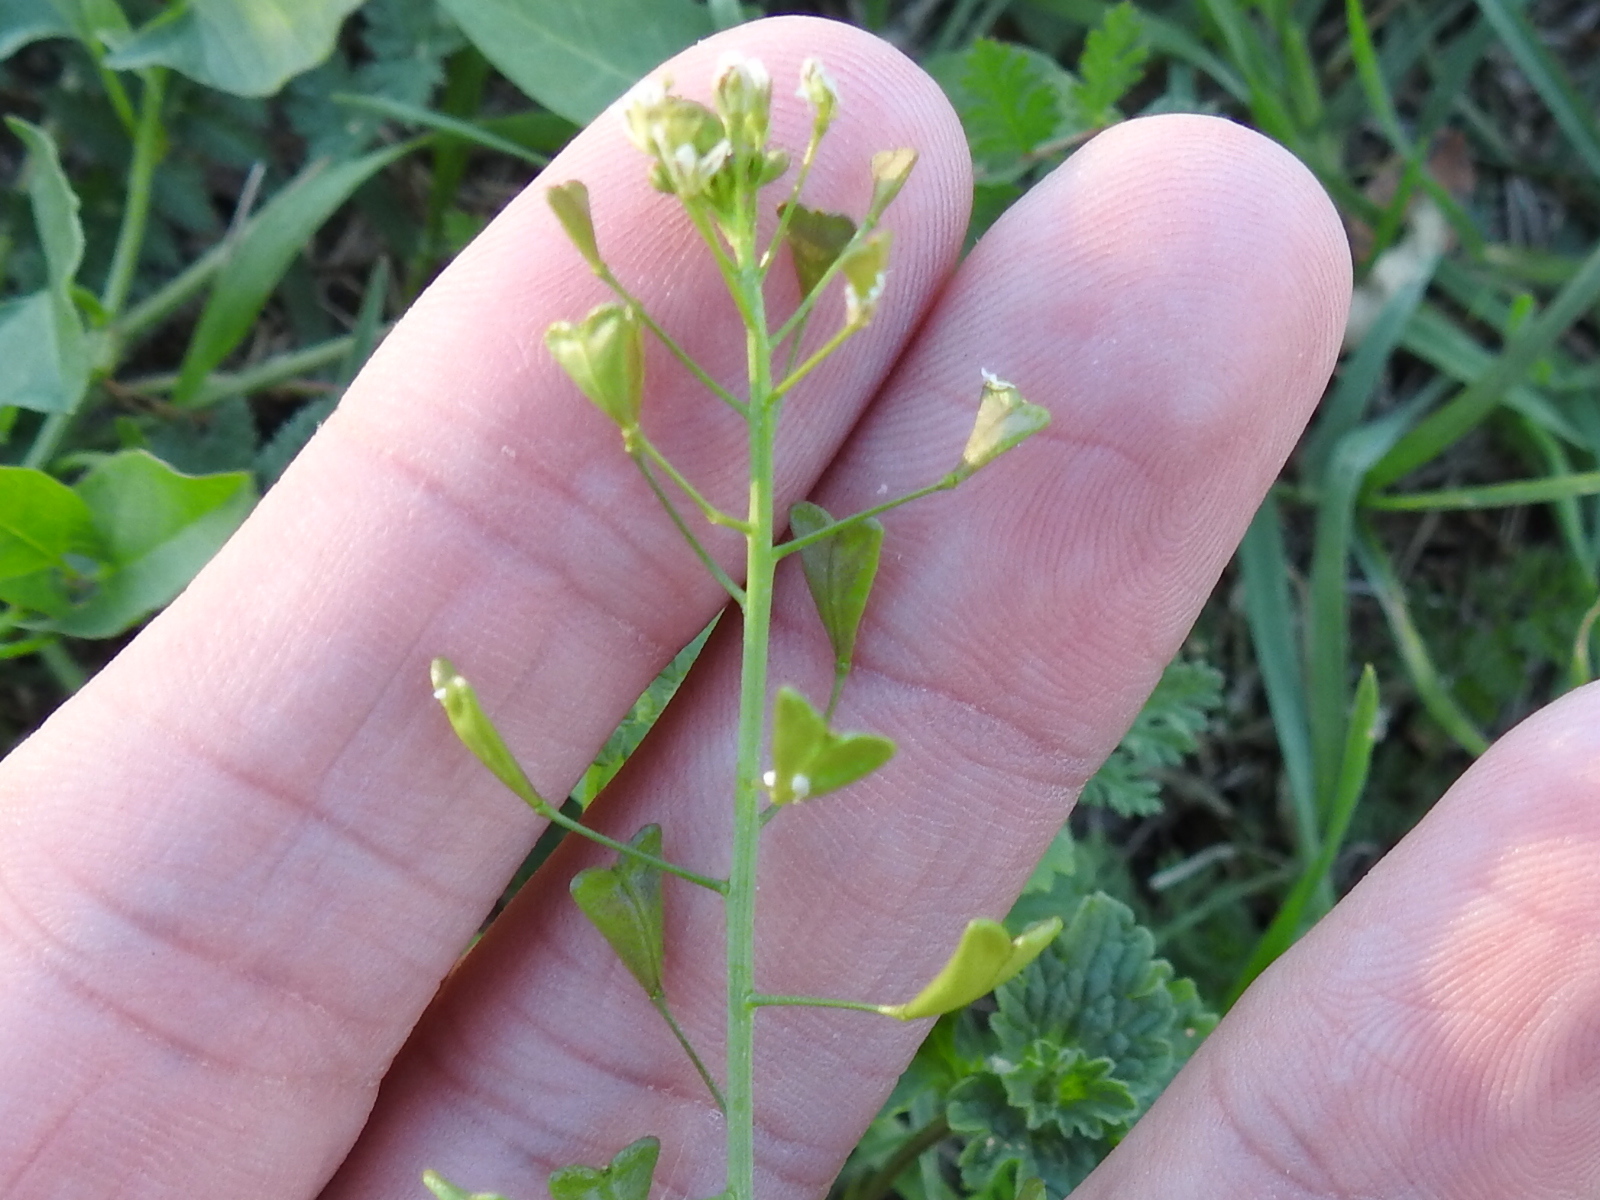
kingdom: Plantae
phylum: Tracheophyta
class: Magnoliopsida
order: Brassicales
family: Brassicaceae
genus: Capsella
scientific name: Capsella bursa-pastoris
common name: Shepherd's purse
